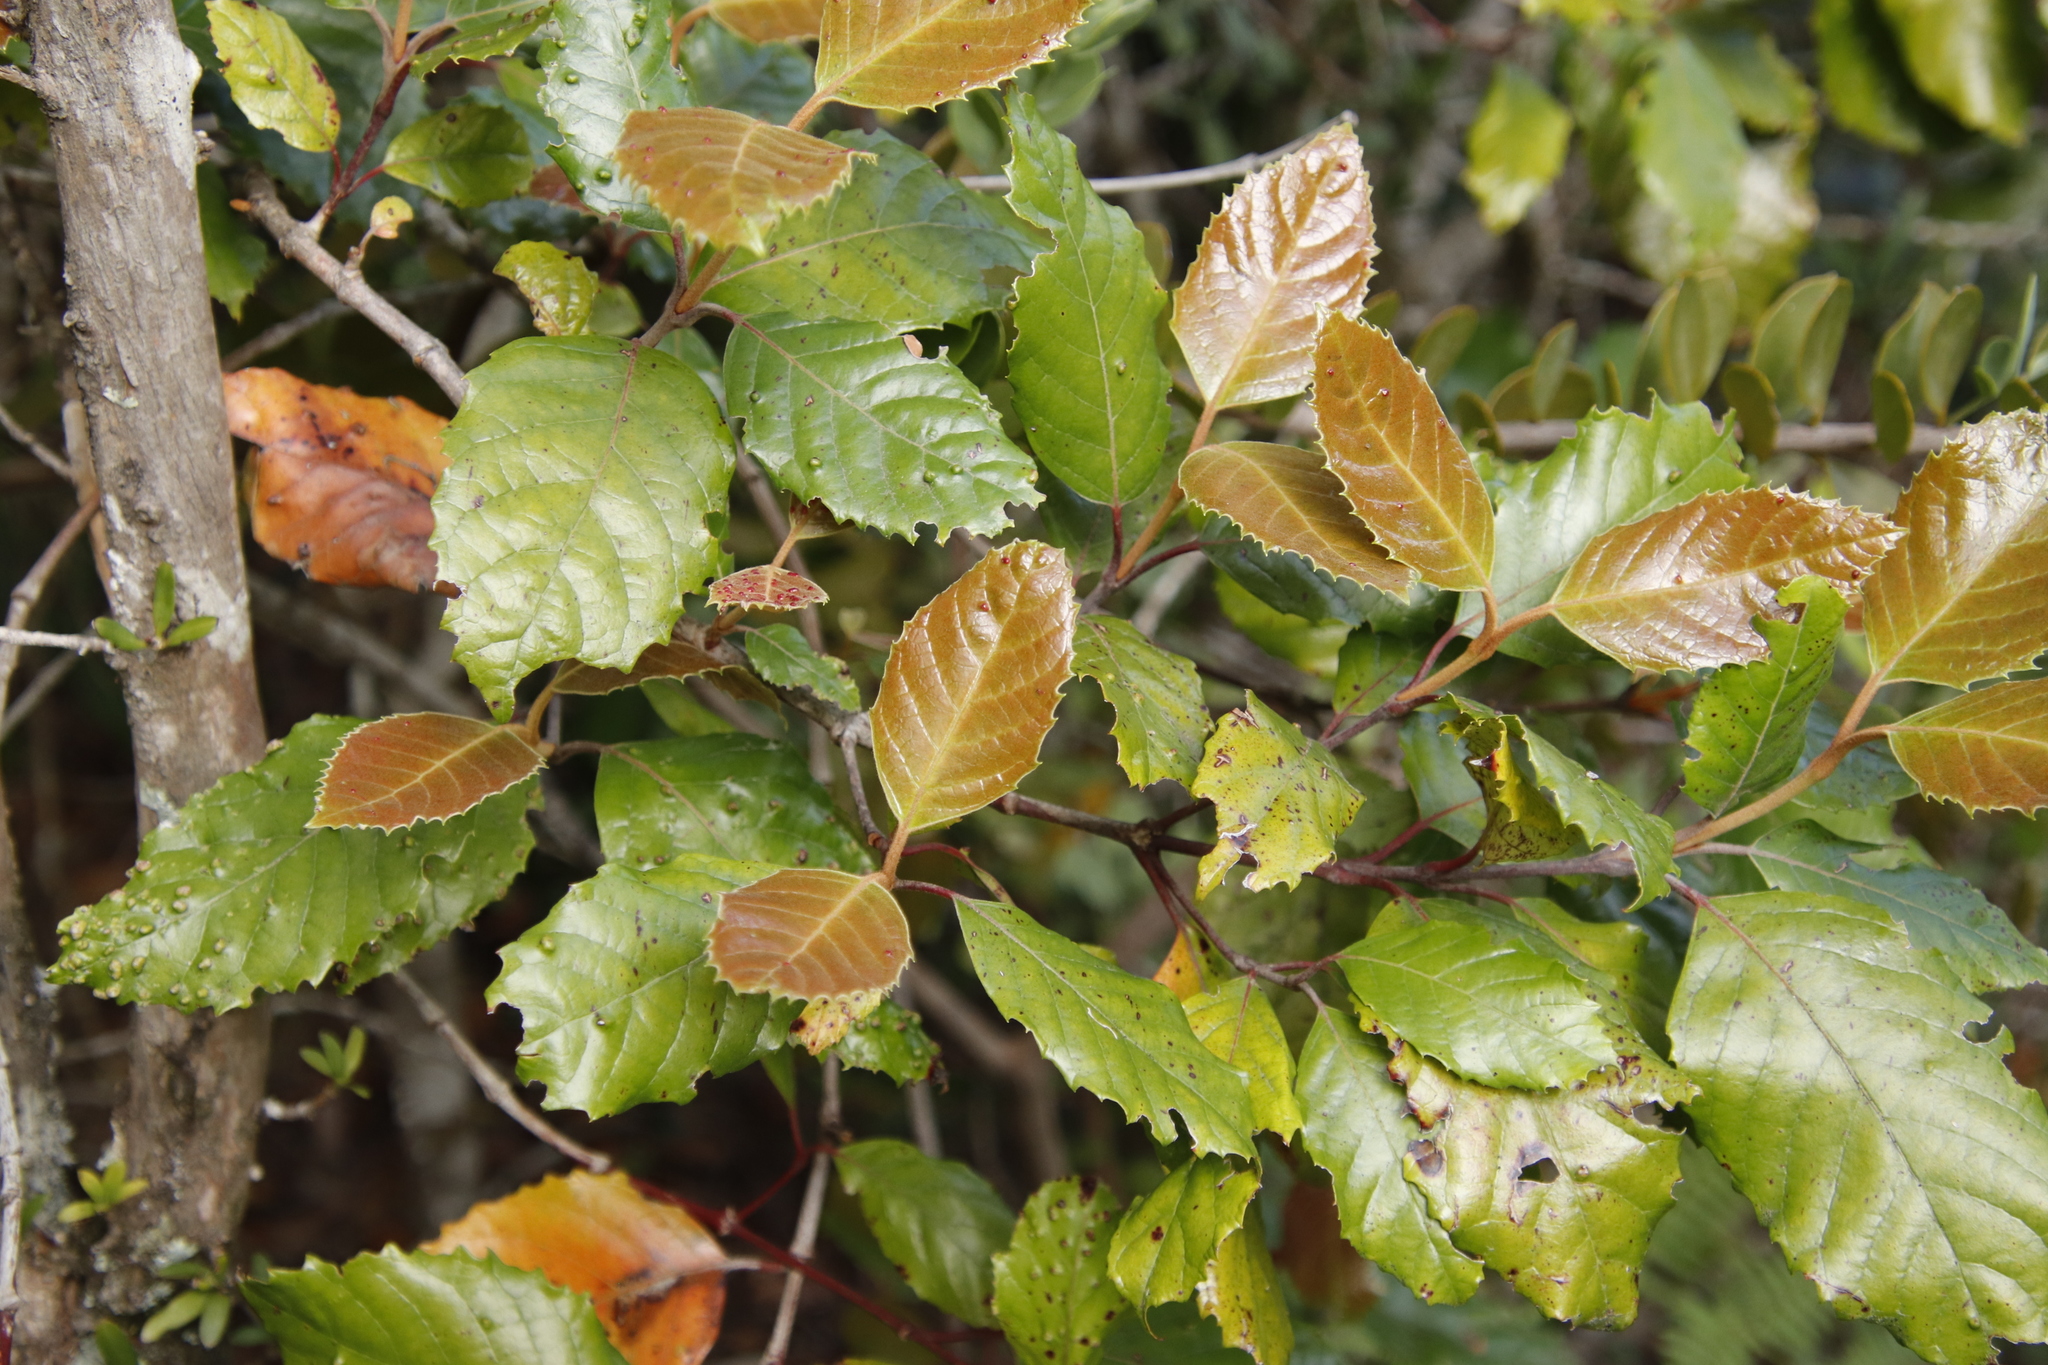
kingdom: Plantae
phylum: Tracheophyta
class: Magnoliopsida
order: Cornales
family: Curtisiaceae
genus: Curtisia
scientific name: Curtisia dentata
